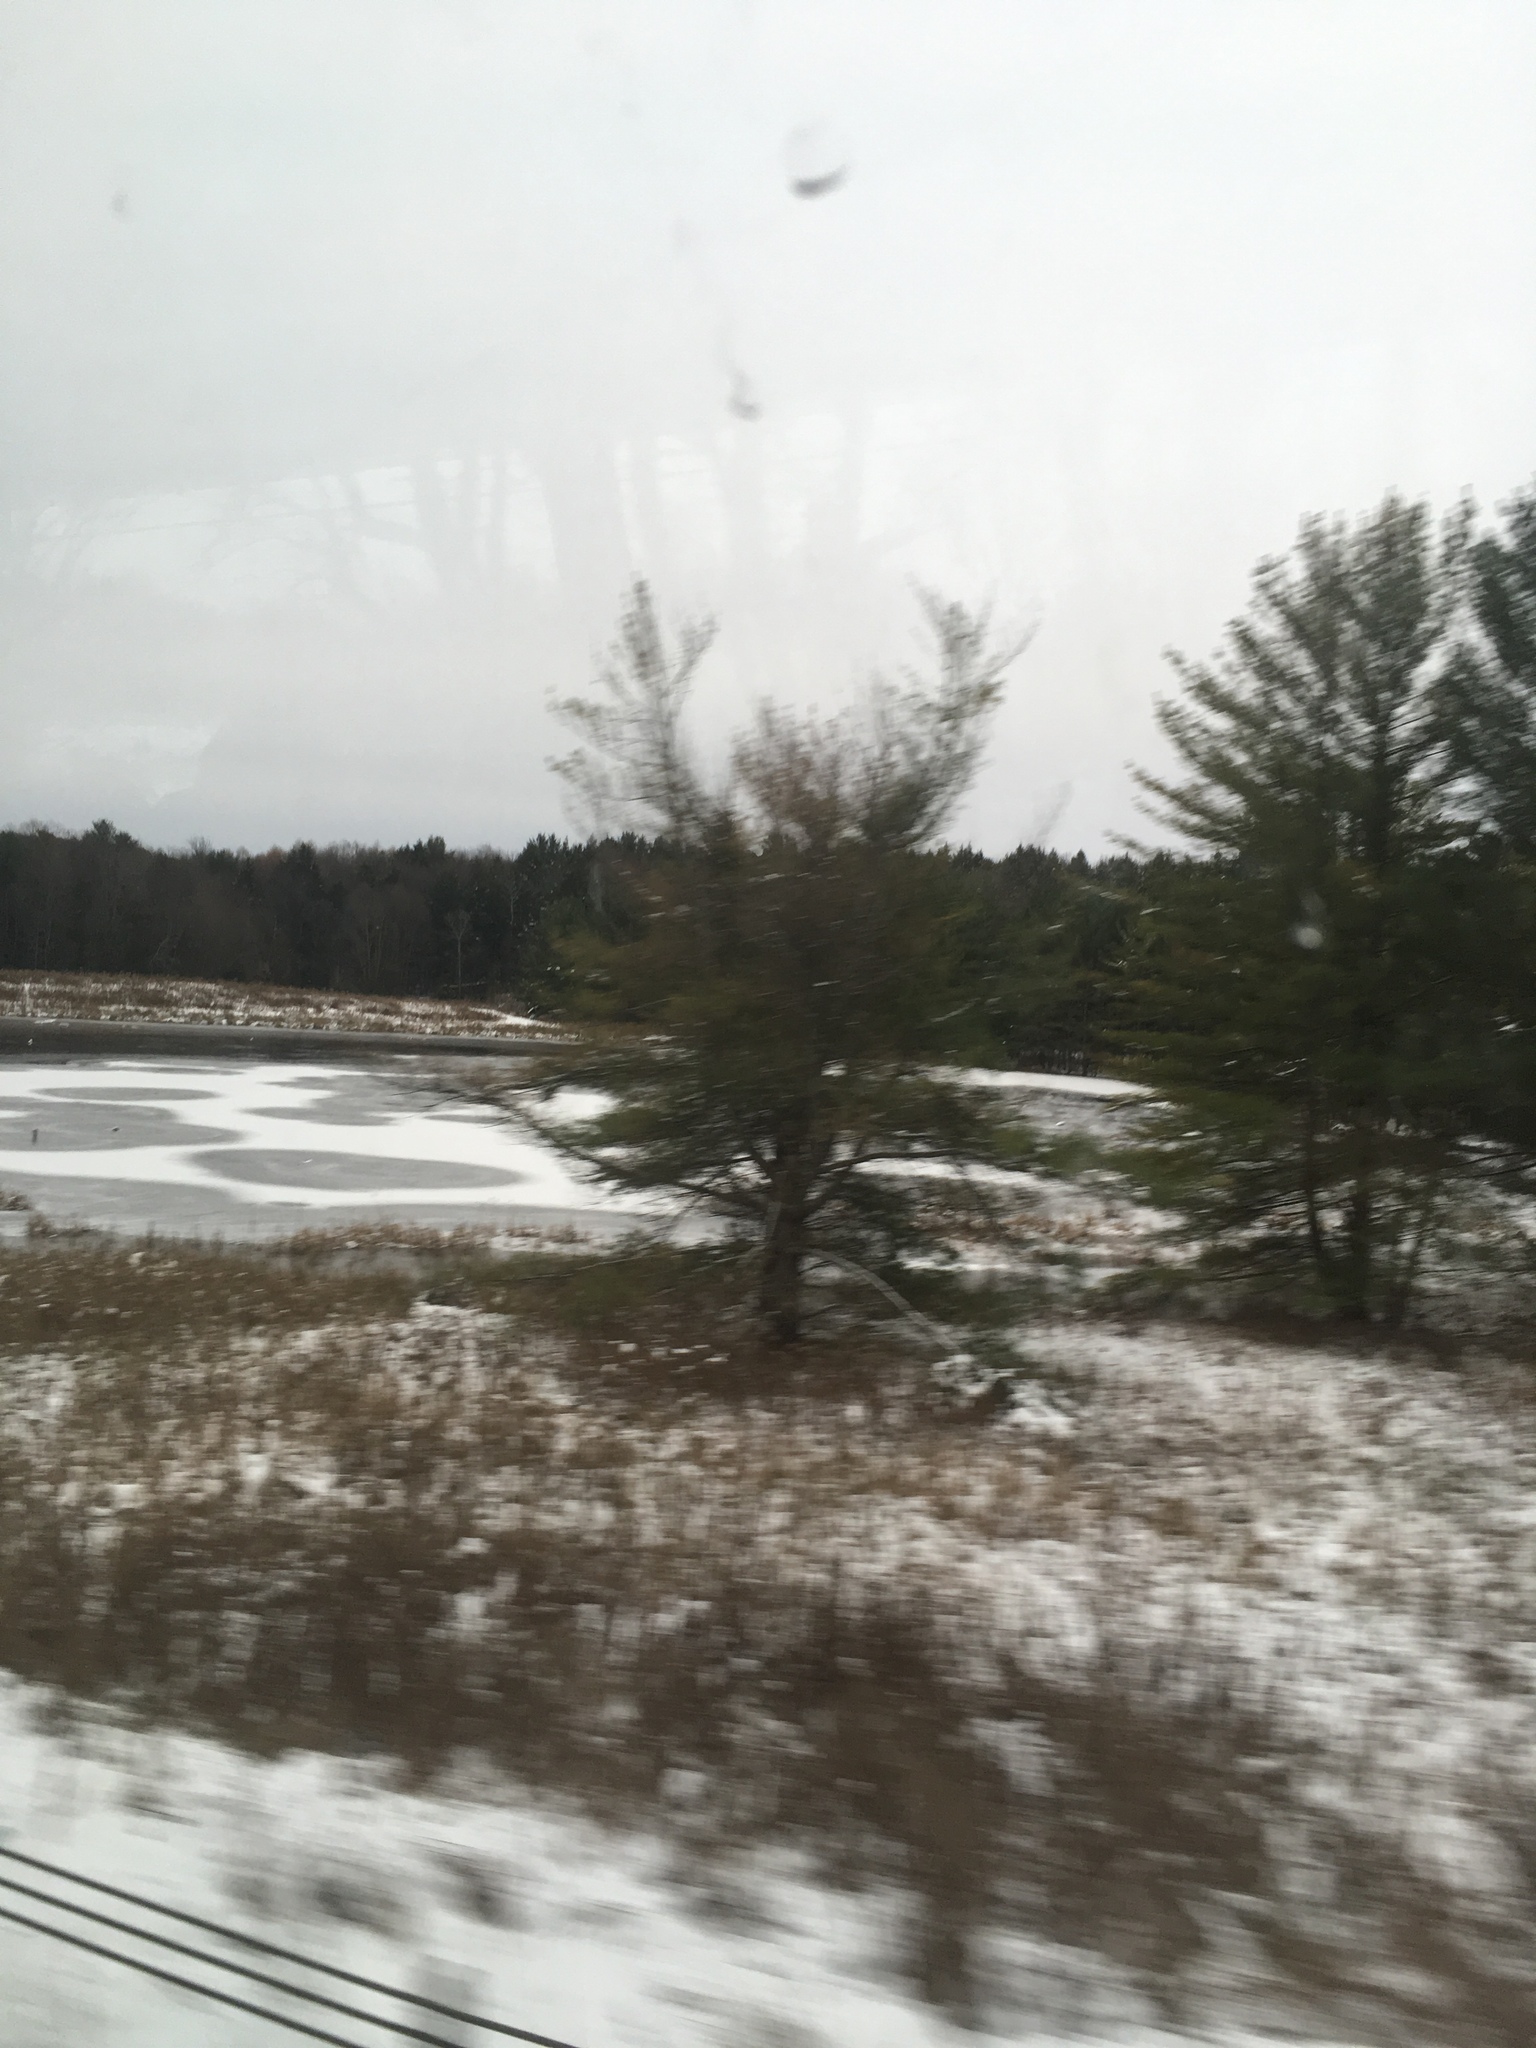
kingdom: Plantae
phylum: Tracheophyta
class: Pinopsida
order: Pinales
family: Pinaceae
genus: Pinus
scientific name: Pinus strobus
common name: Weymouth pine
